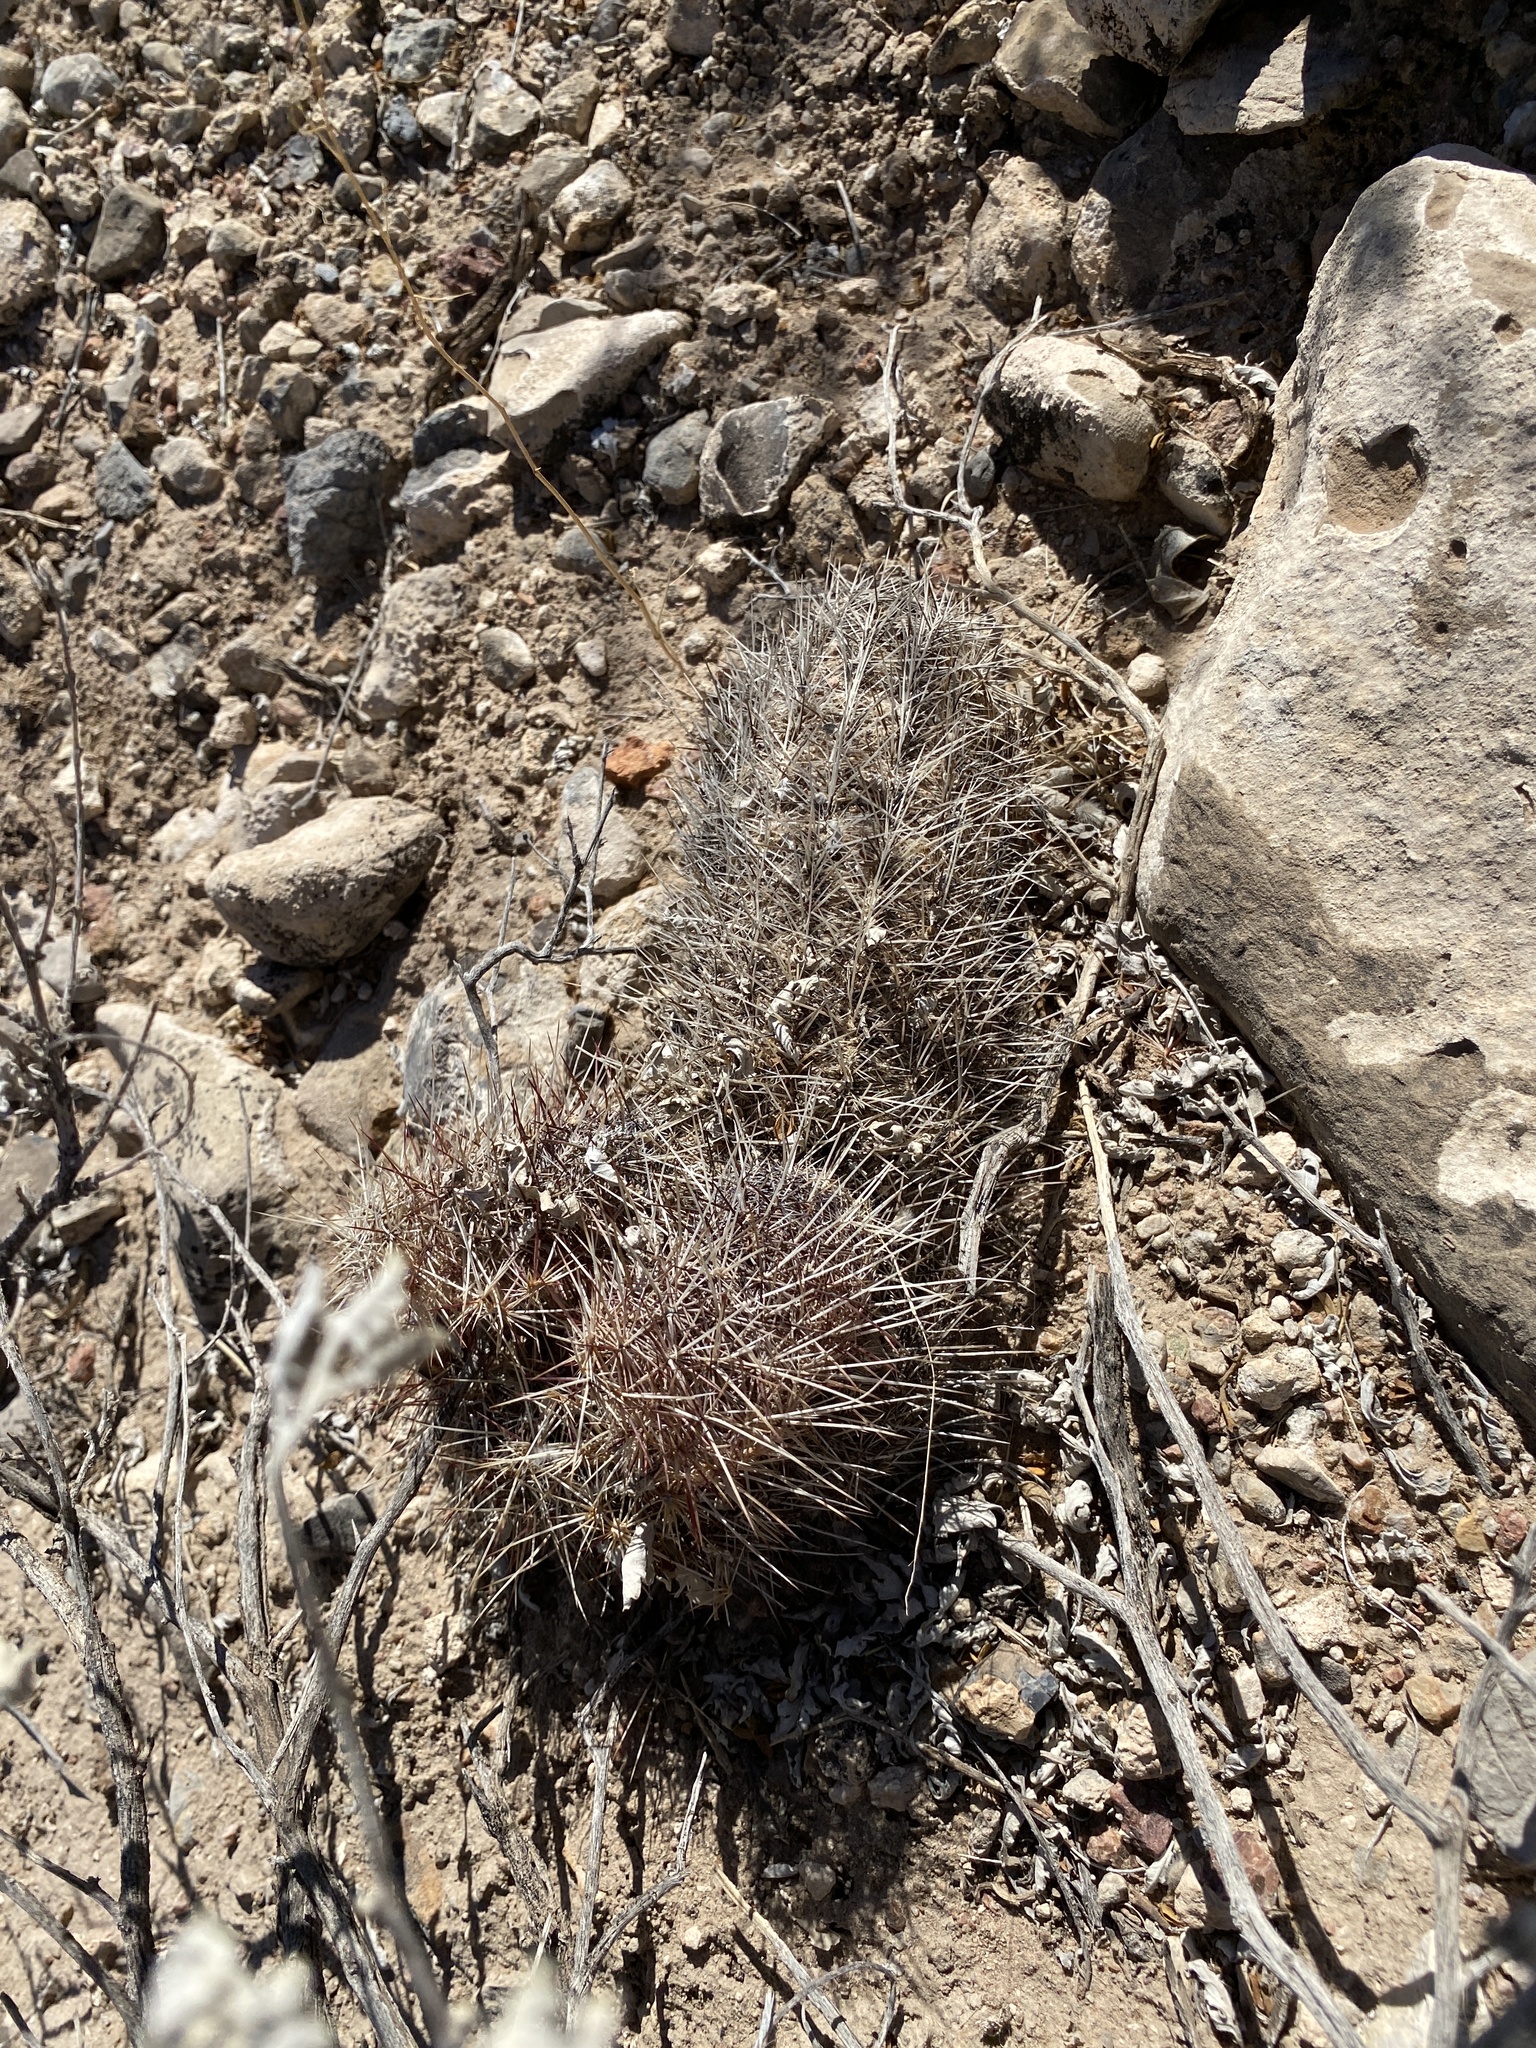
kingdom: Plantae
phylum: Tracheophyta
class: Magnoliopsida
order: Caryophyllales
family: Cactaceae
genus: Echinocereus
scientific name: Echinocereus viridiflorus
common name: Nylon hedgehog cactus
